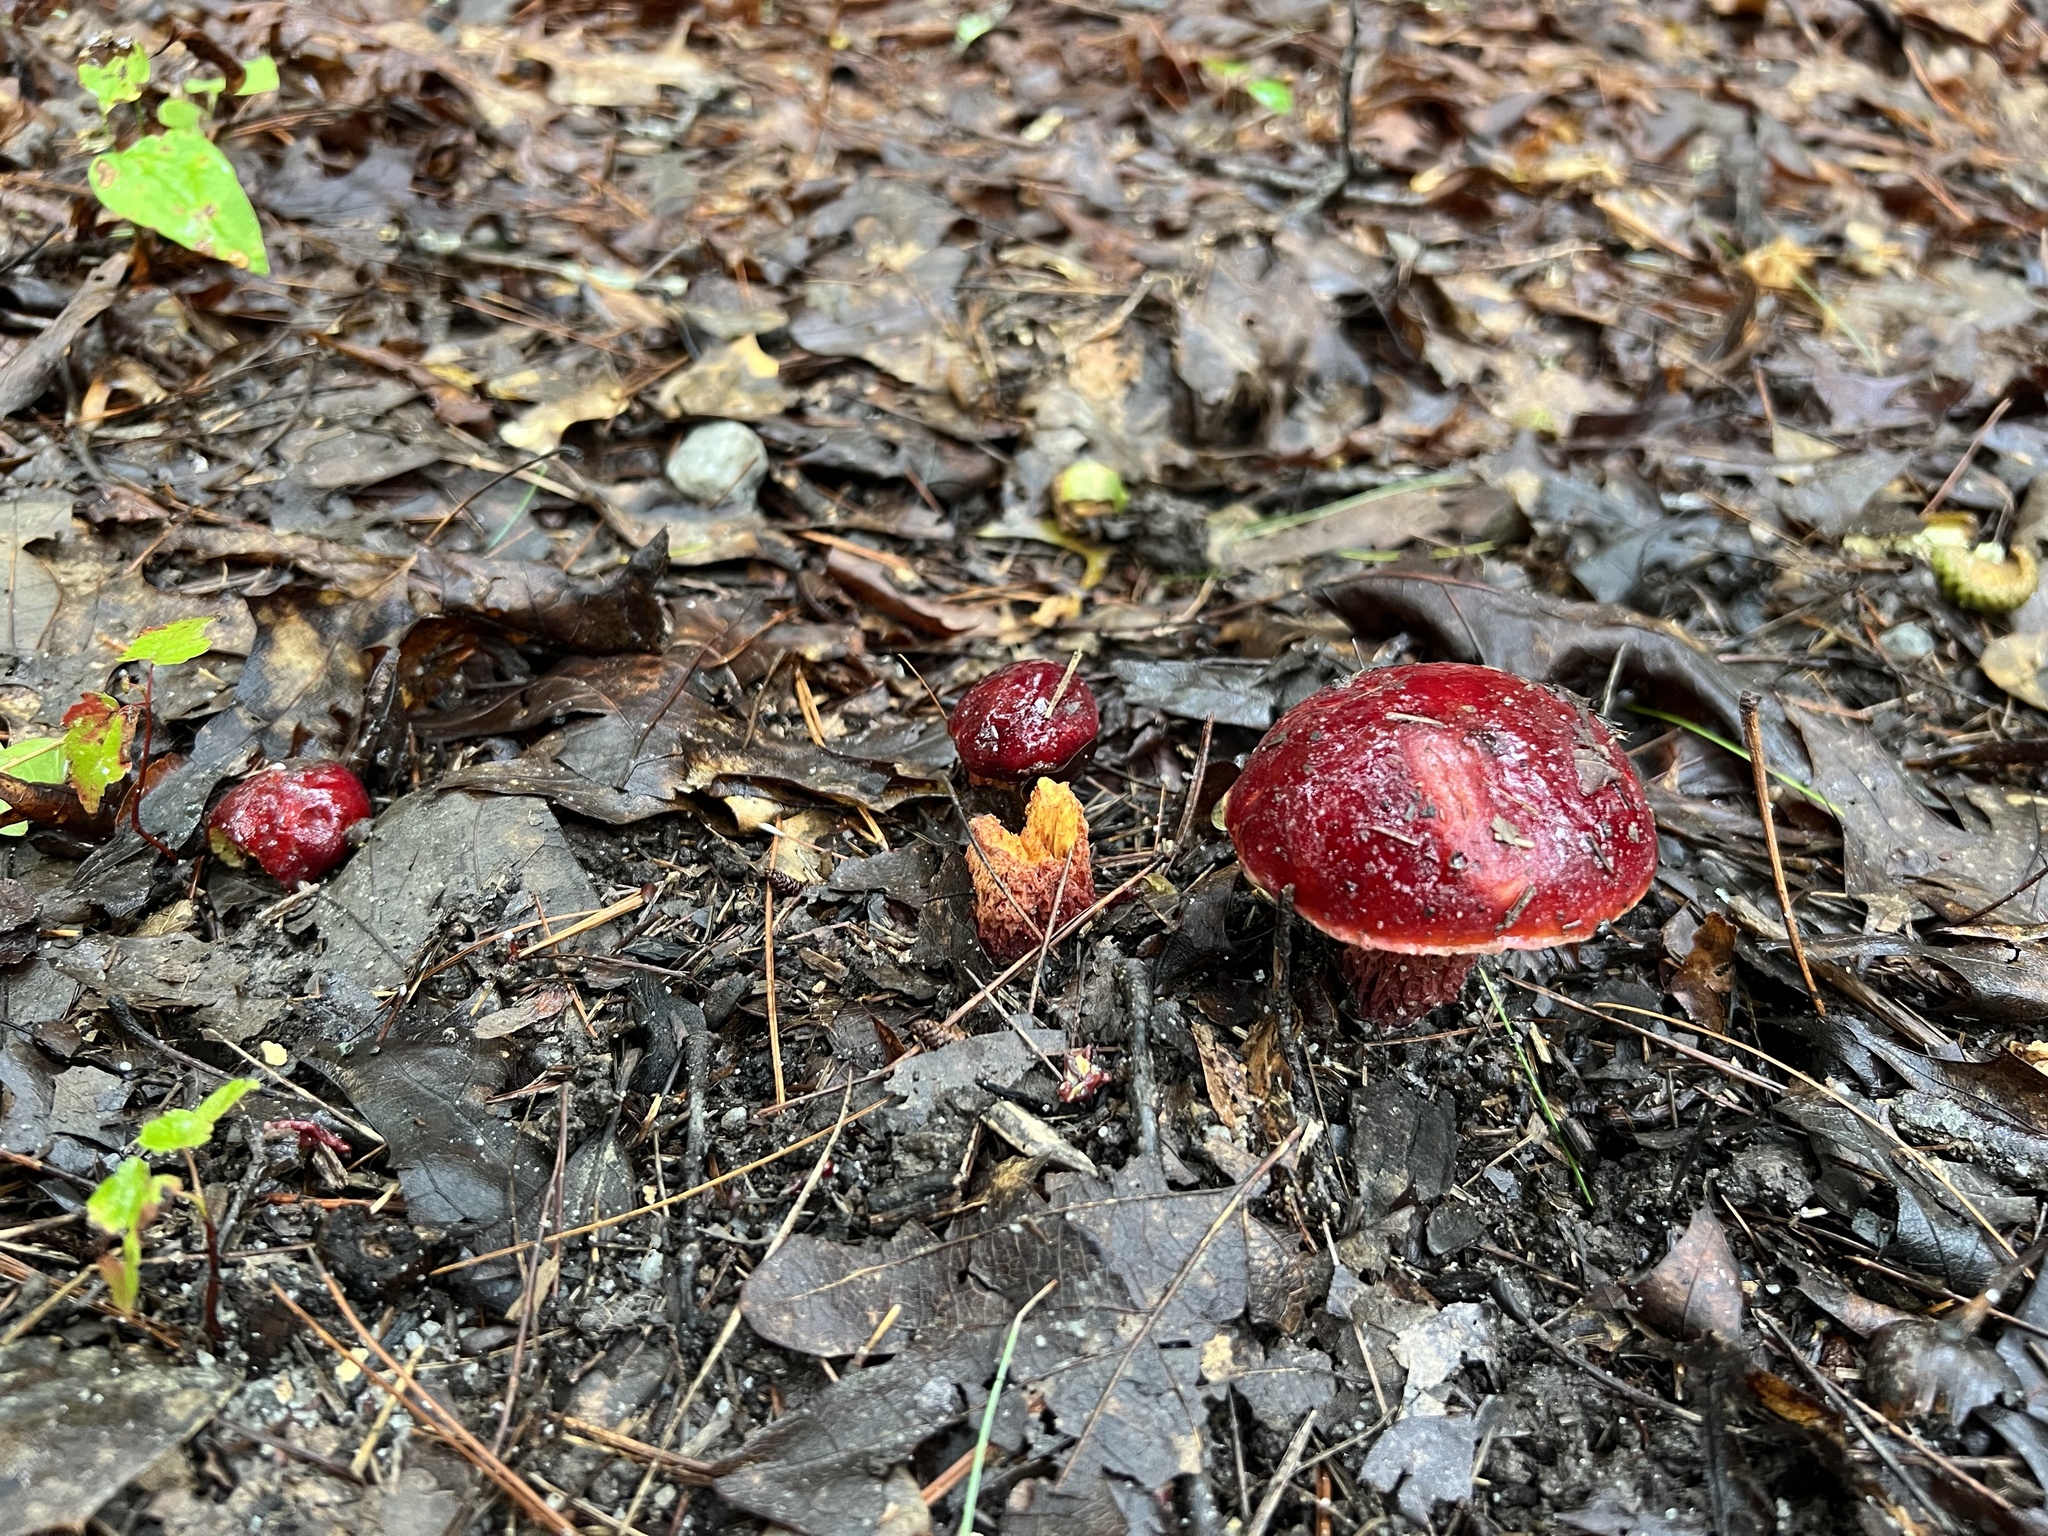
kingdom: Fungi
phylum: Basidiomycota
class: Agaricomycetes
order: Boletales
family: Boletaceae
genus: Butyriboletus
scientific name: Butyriboletus frostii
